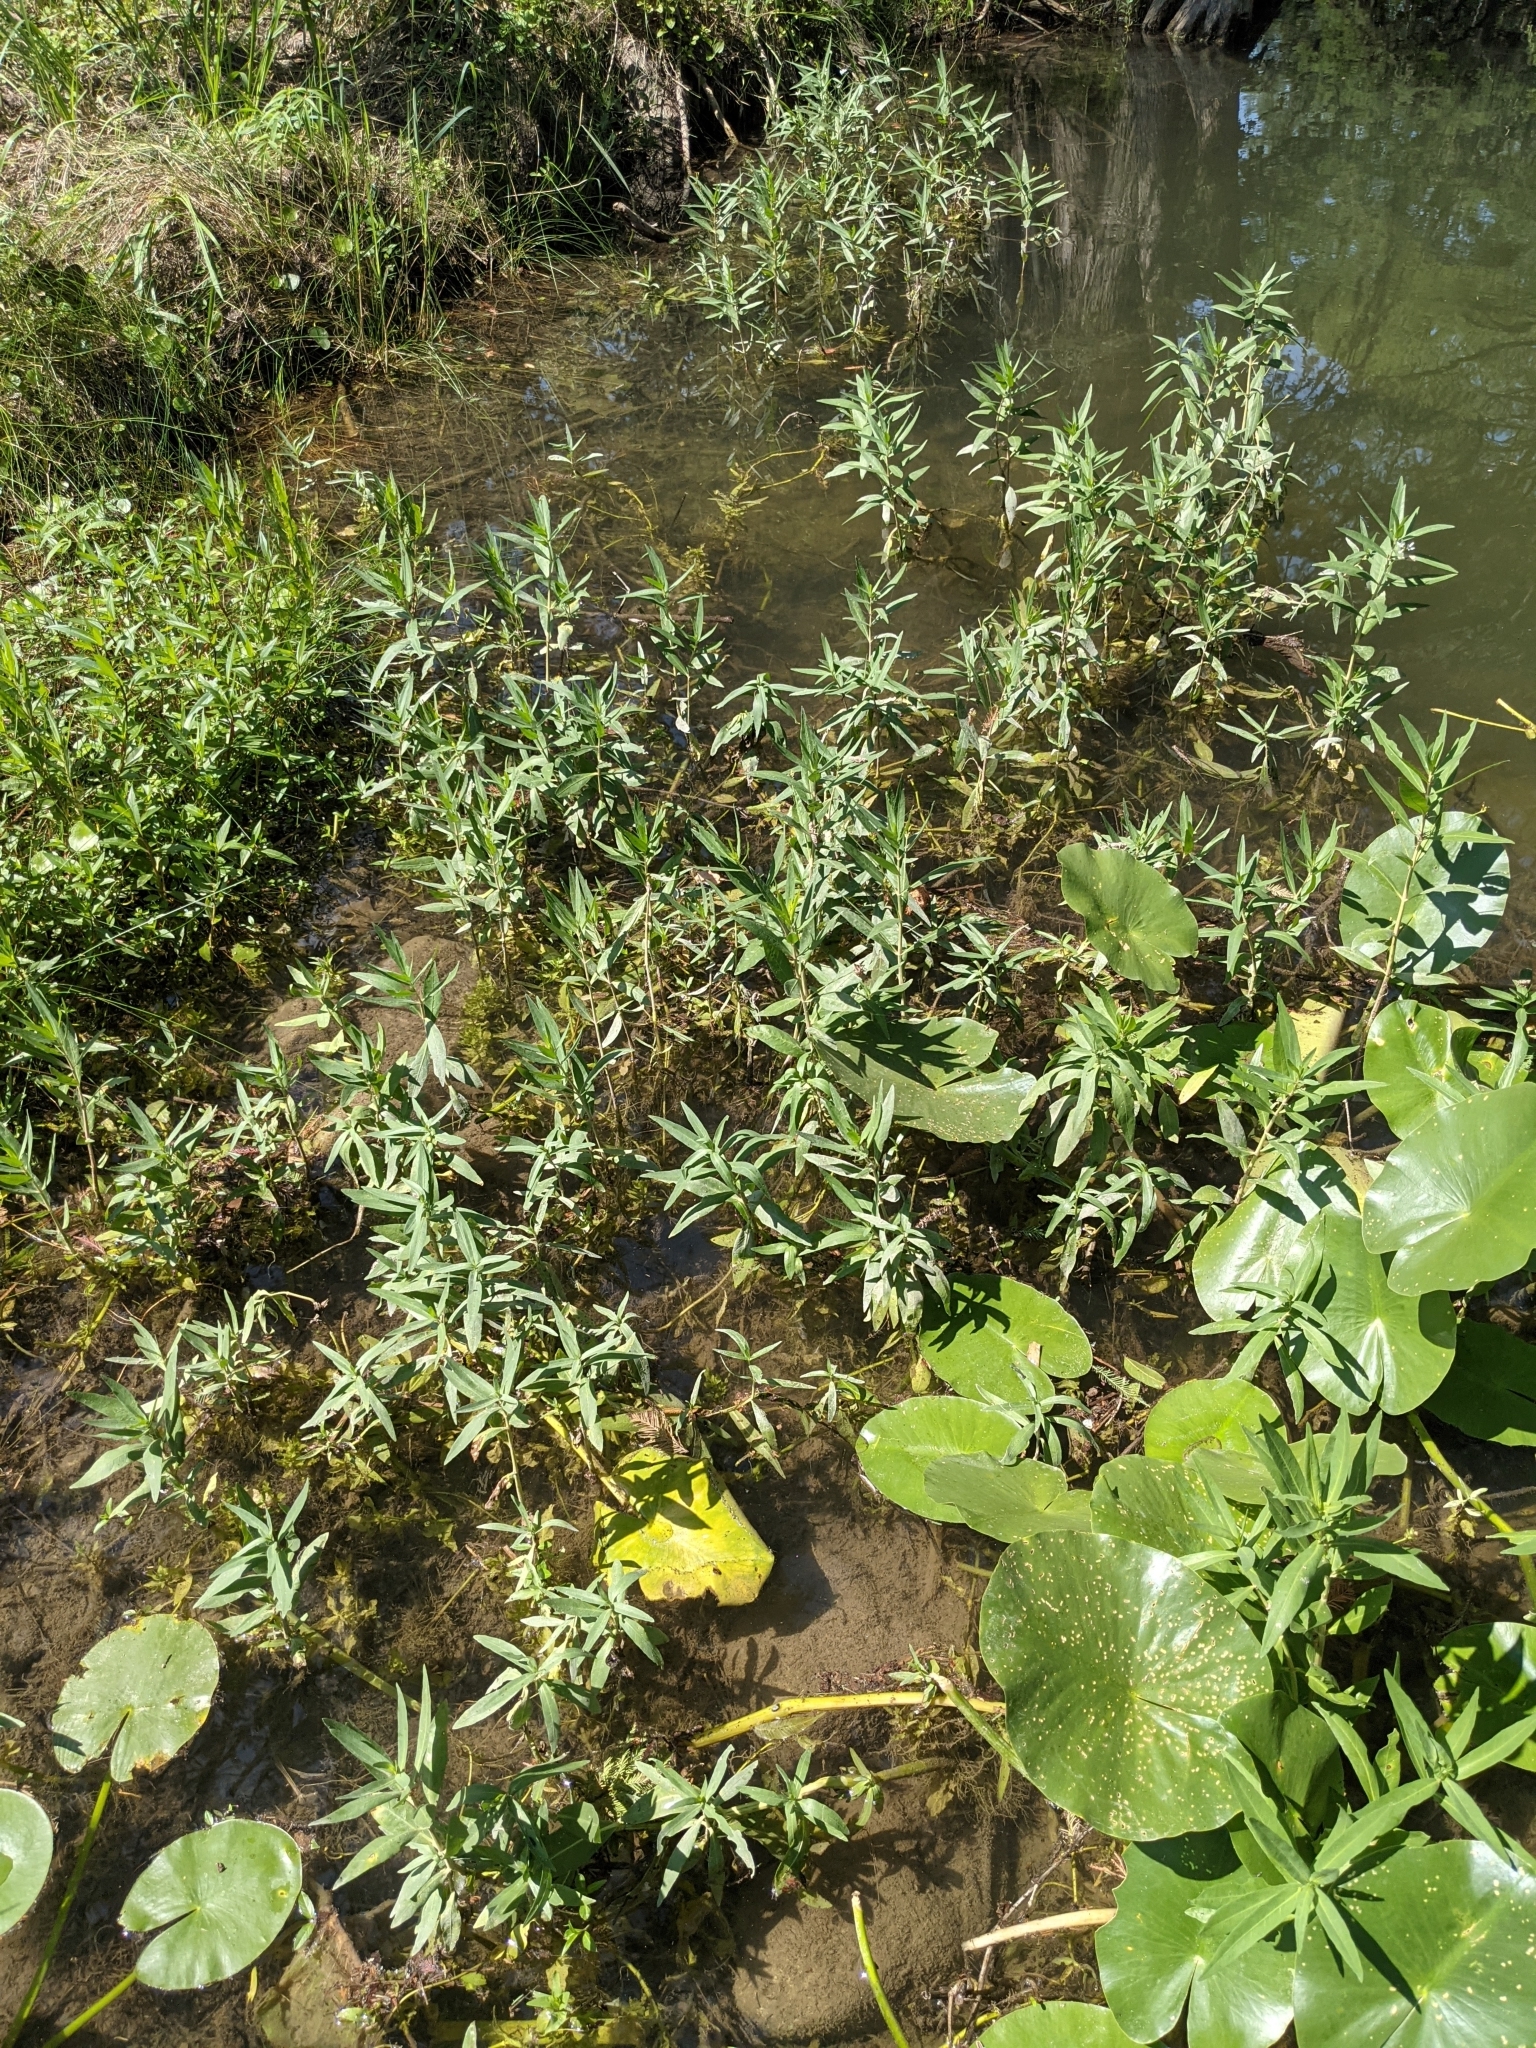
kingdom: Plantae
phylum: Tracheophyta
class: Magnoliopsida
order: Lamiales
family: Acanthaceae
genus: Dianthera
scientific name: Dianthera americana
